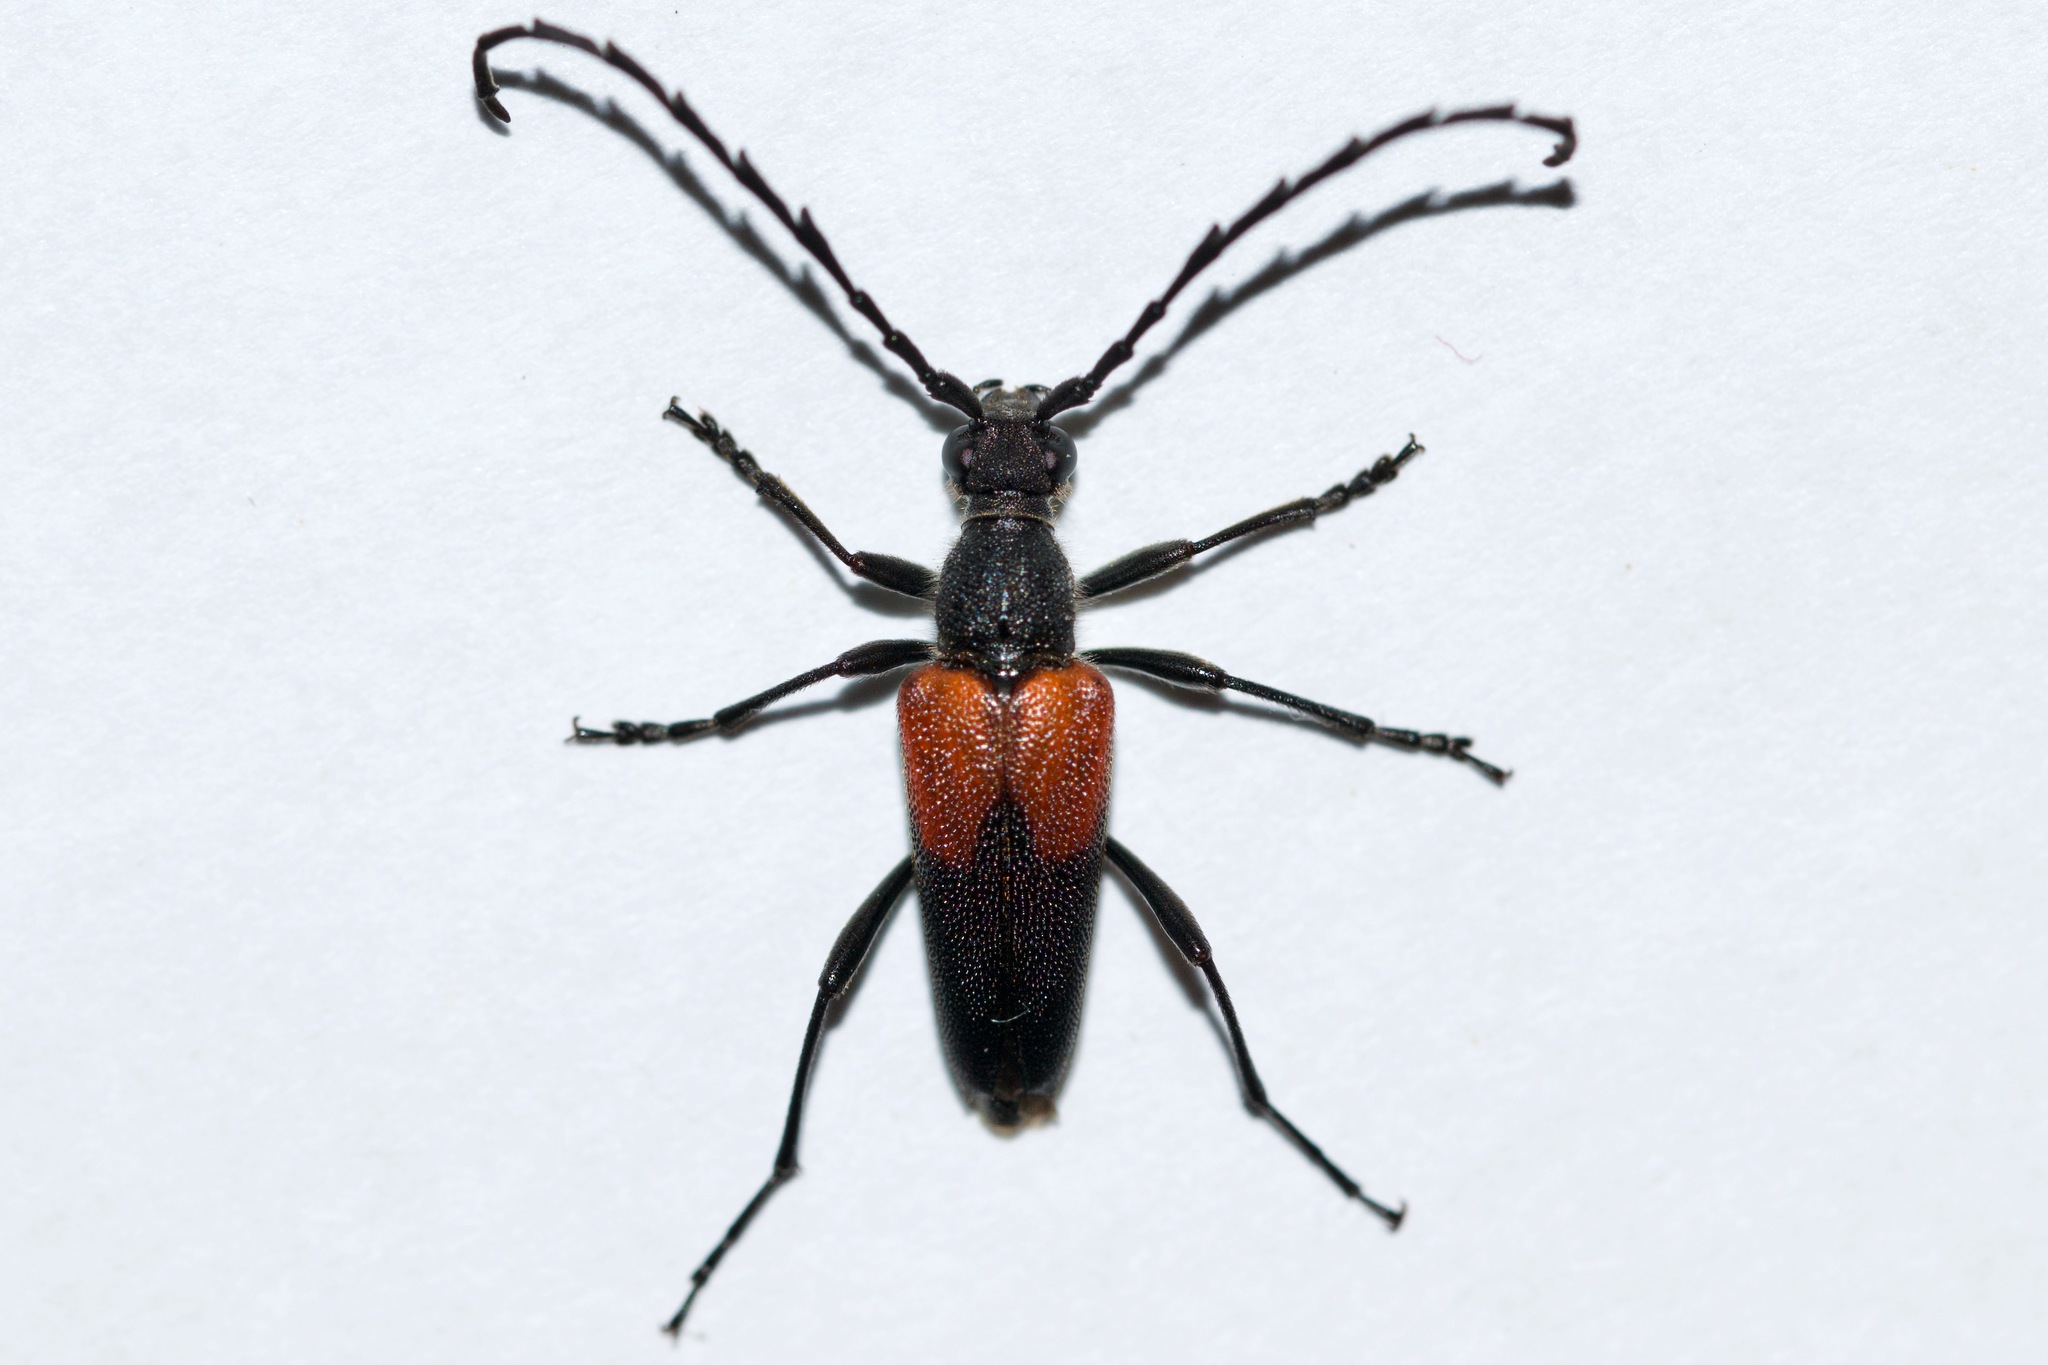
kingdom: Animalia
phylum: Arthropoda
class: Insecta
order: Coleoptera
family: Cerambycidae
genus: Stictoleptura
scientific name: Stictoleptura canadensis
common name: Red-shouldered pine borer
